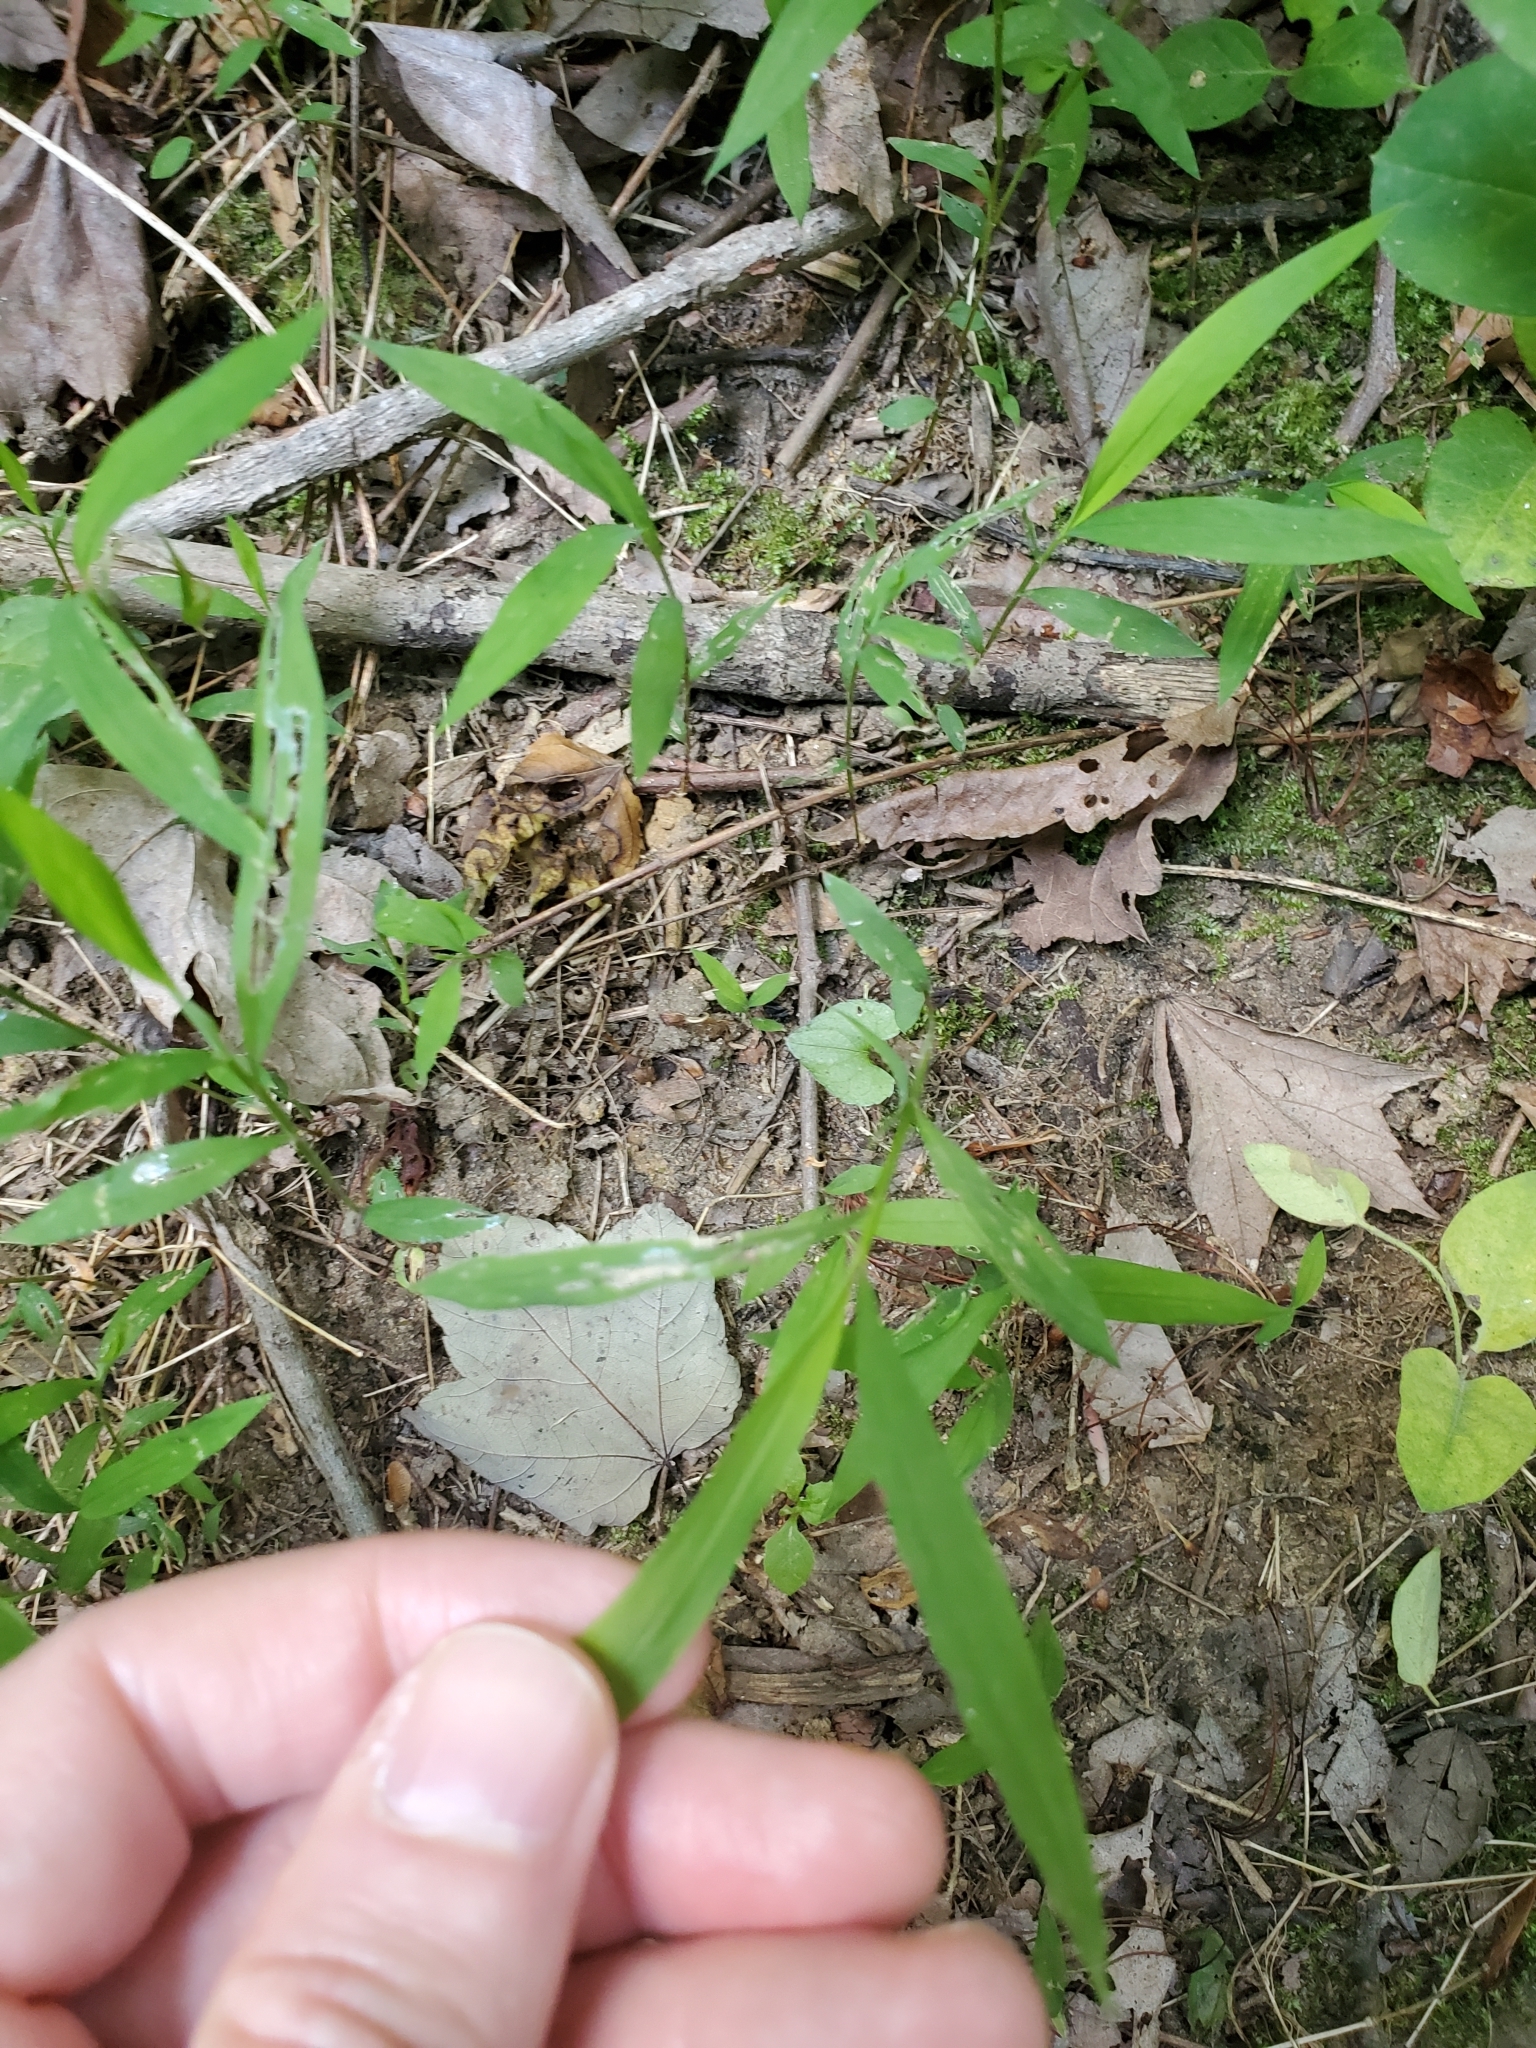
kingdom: Plantae
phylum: Tracheophyta
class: Liliopsida
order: Poales
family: Poaceae
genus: Microstegium
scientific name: Microstegium vimineum
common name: Japanese stiltgrass
